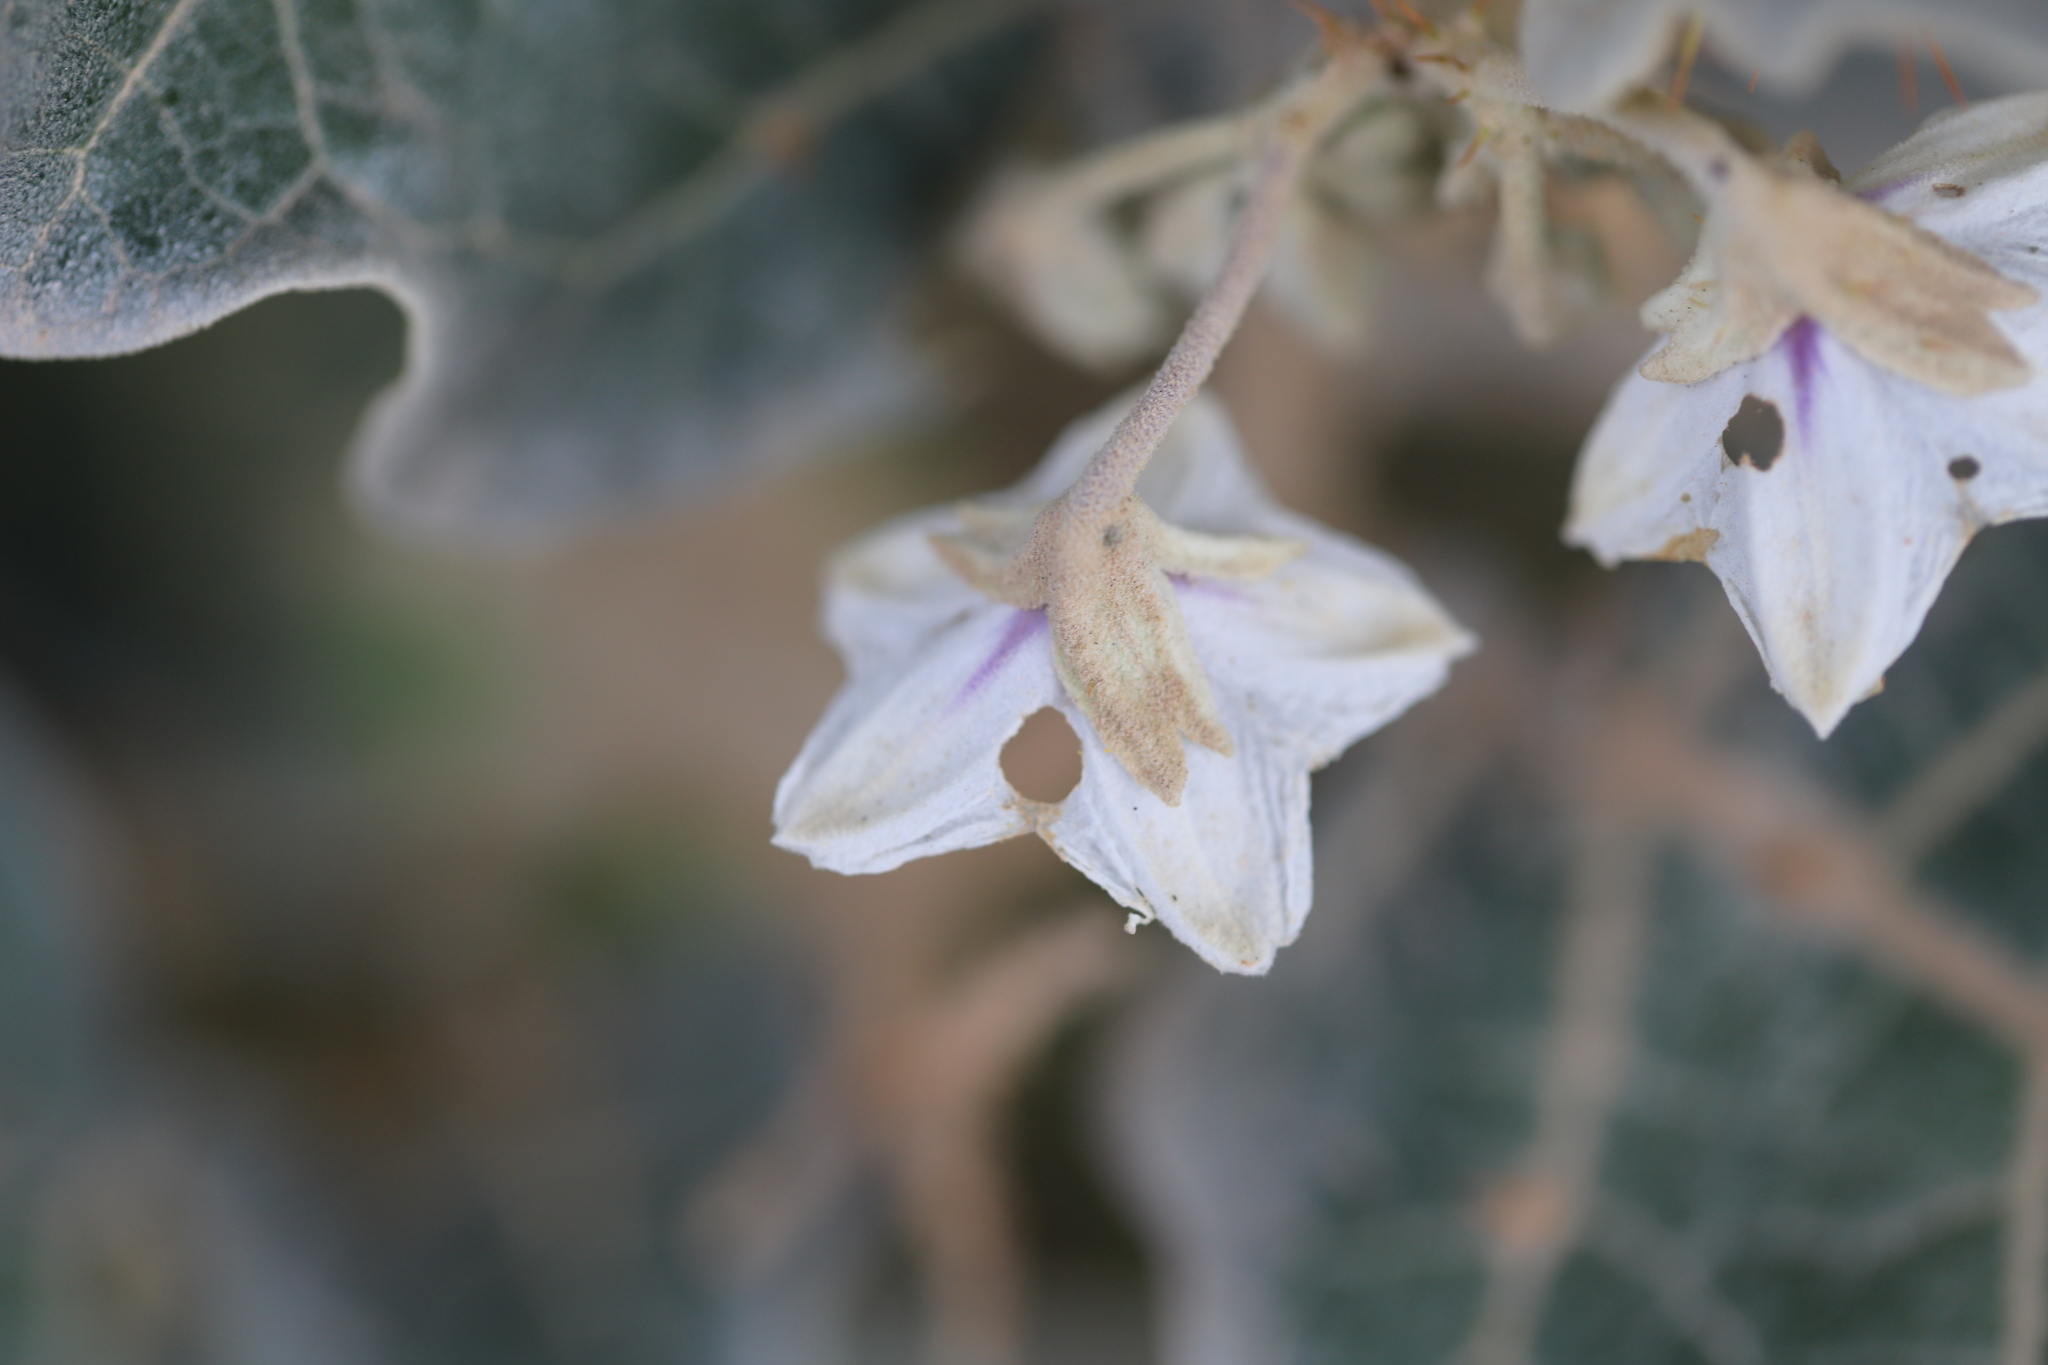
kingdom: Plantae
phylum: Tracheophyta
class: Magnoliopsida
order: Solanales
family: Solanaceae
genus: Solanum
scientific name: Solanum marginatum
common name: Purple african nightshade
